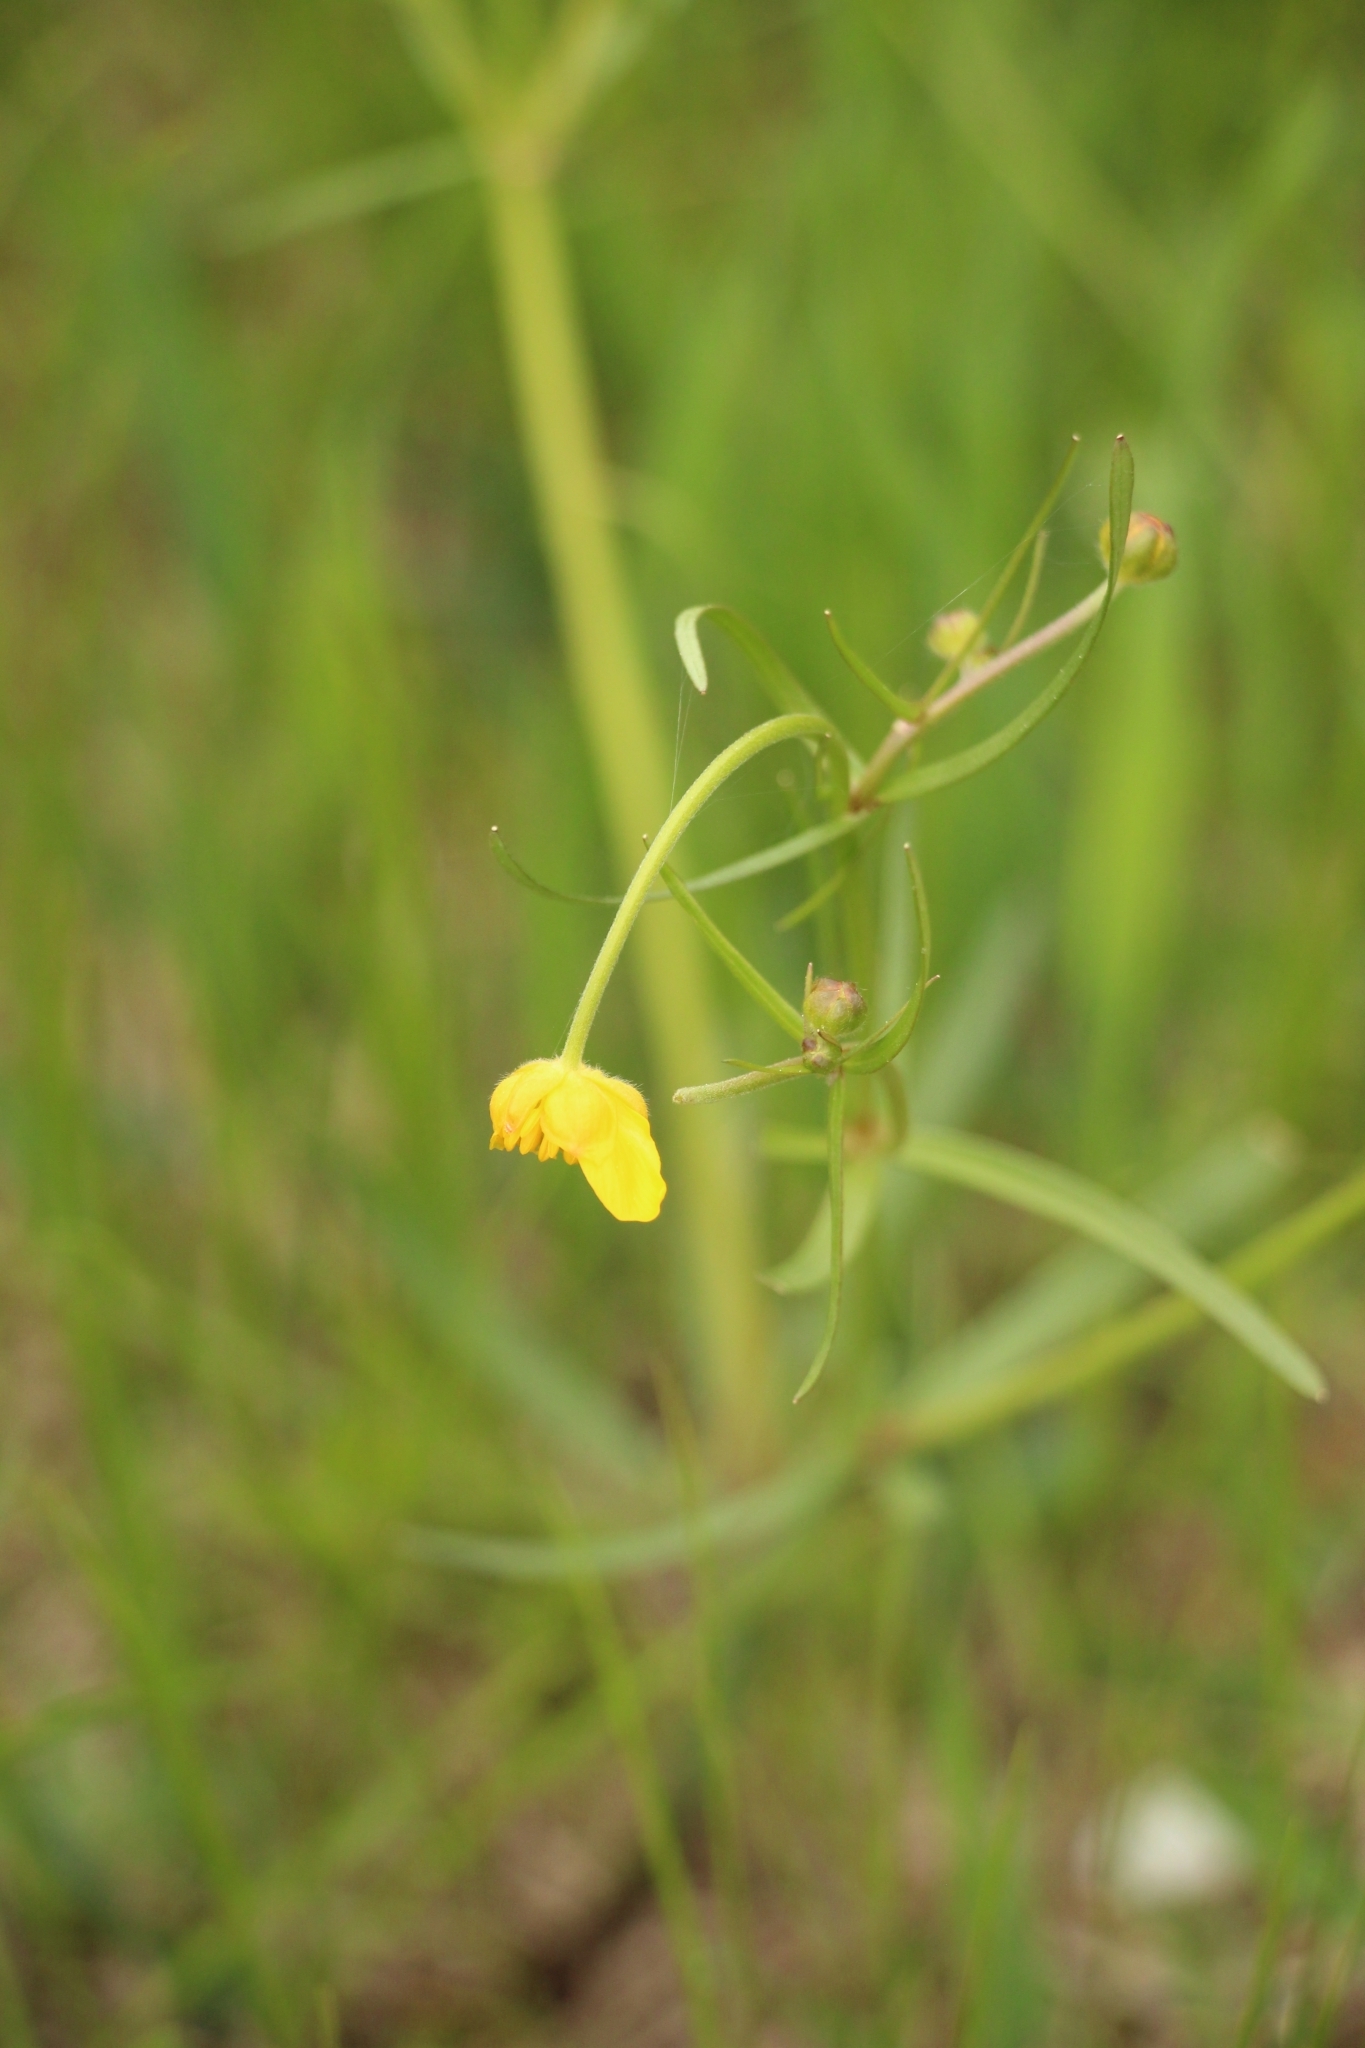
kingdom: Plantae
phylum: Tracheophyta
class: Magnoliopsida
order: Ranunculales
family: Ranunculaceae
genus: Ranunculus
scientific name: Ranunculus auricomus
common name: Goldilocks buttercup
